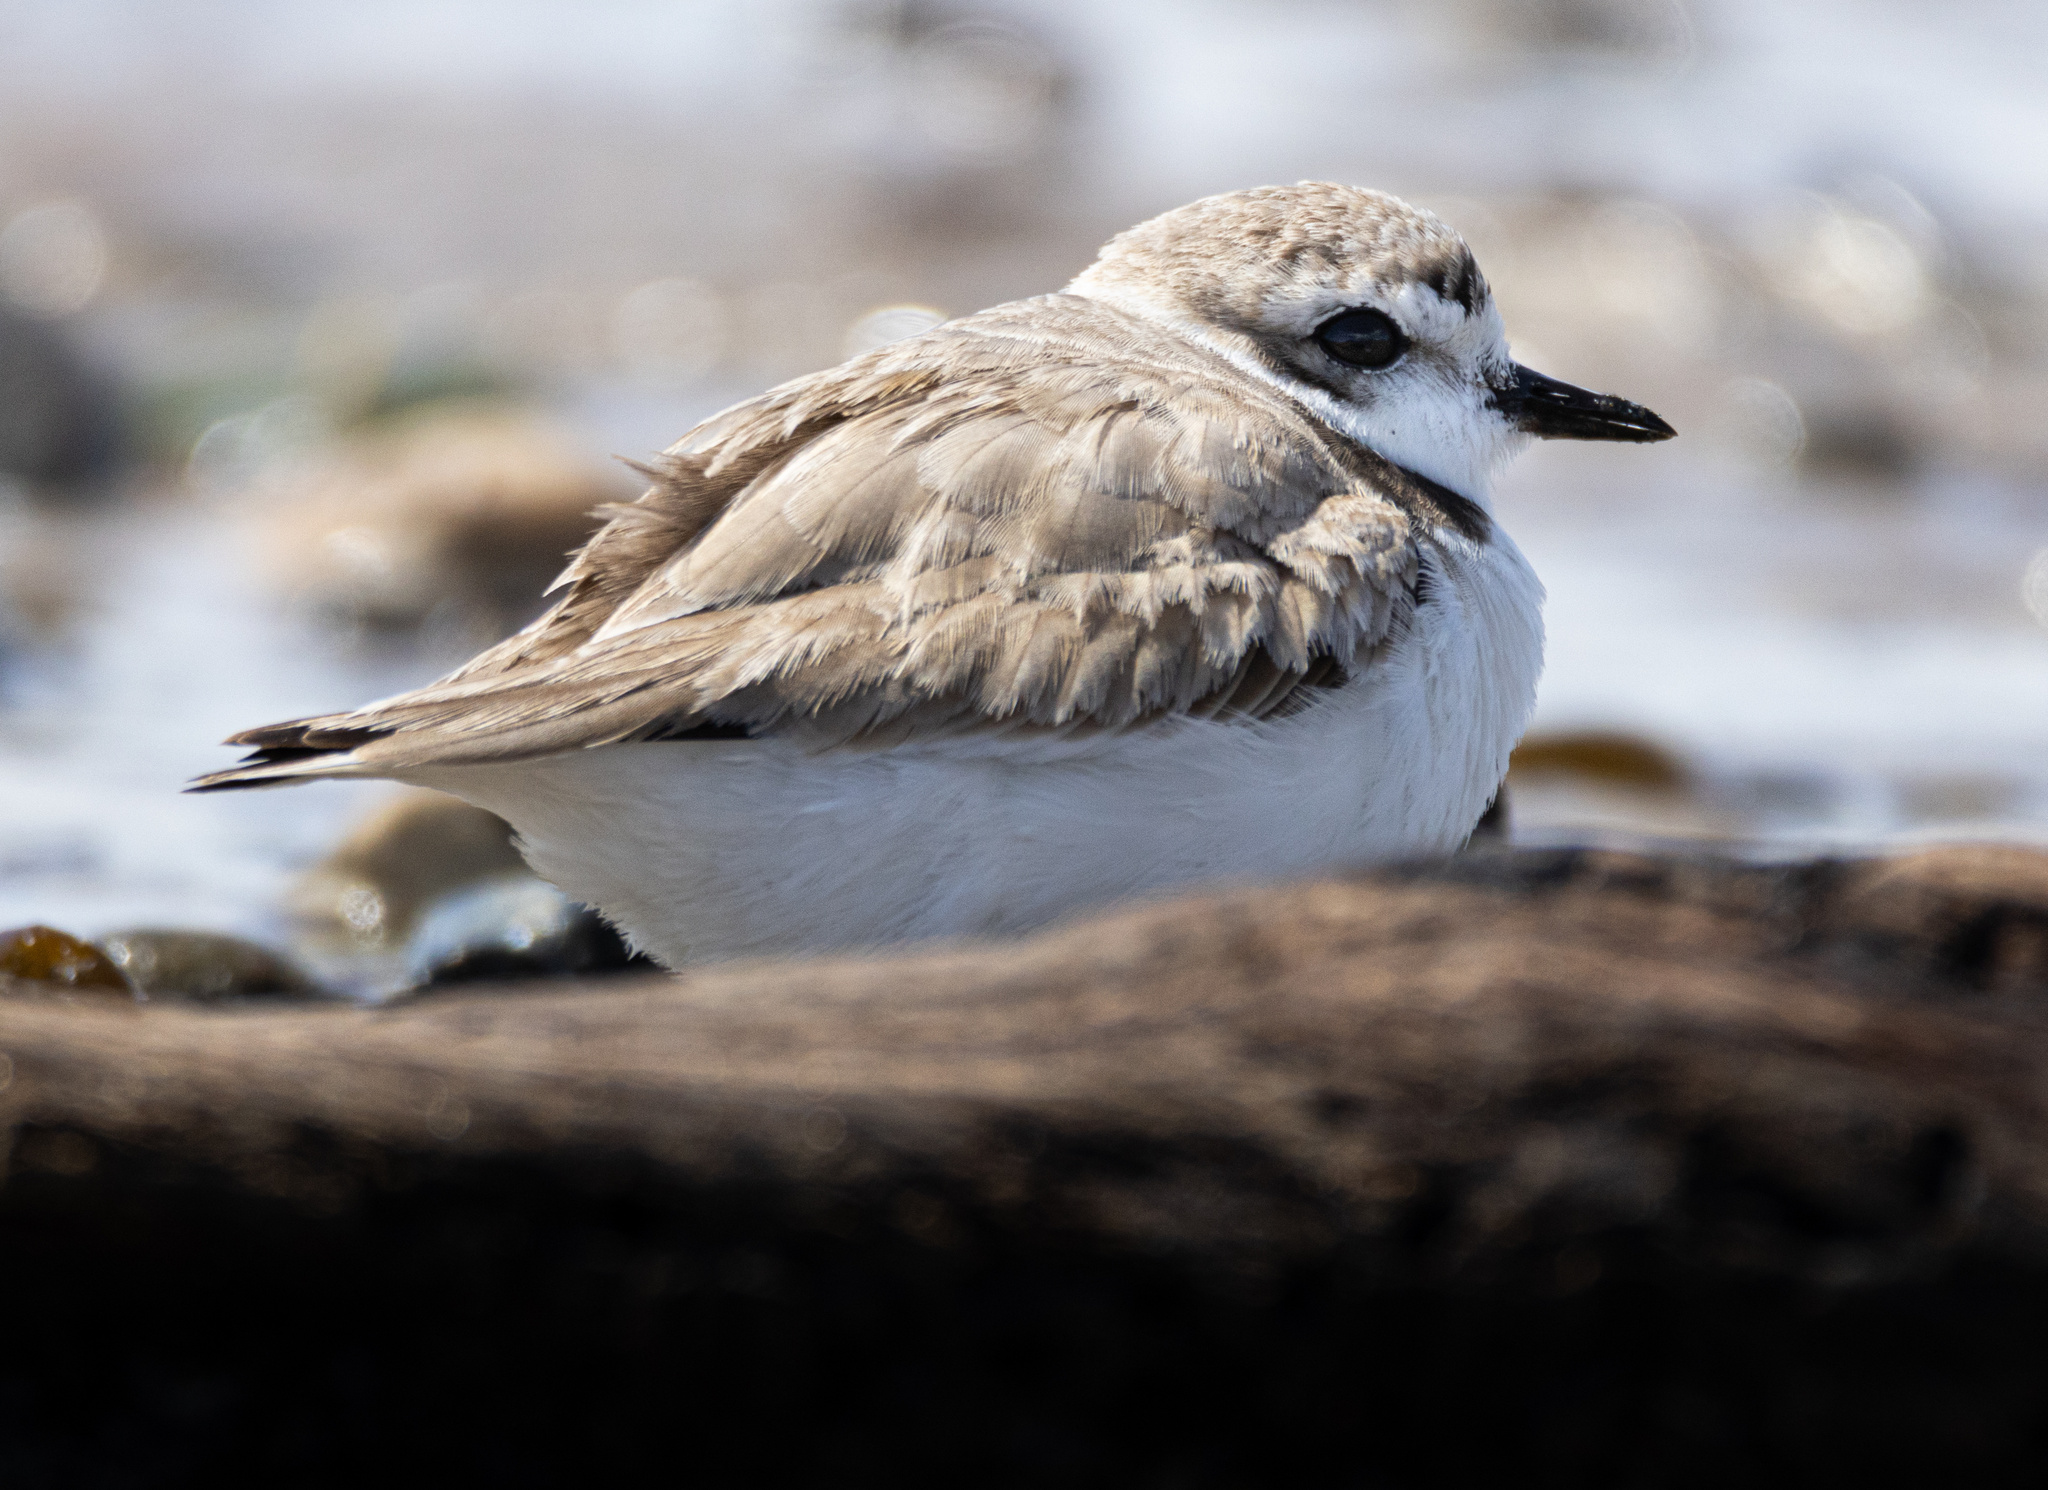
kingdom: Animalia
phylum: Chordata
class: Aves
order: Charadriiformes
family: Charadriidae
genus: Anarhynchus
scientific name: Anarhynchus
